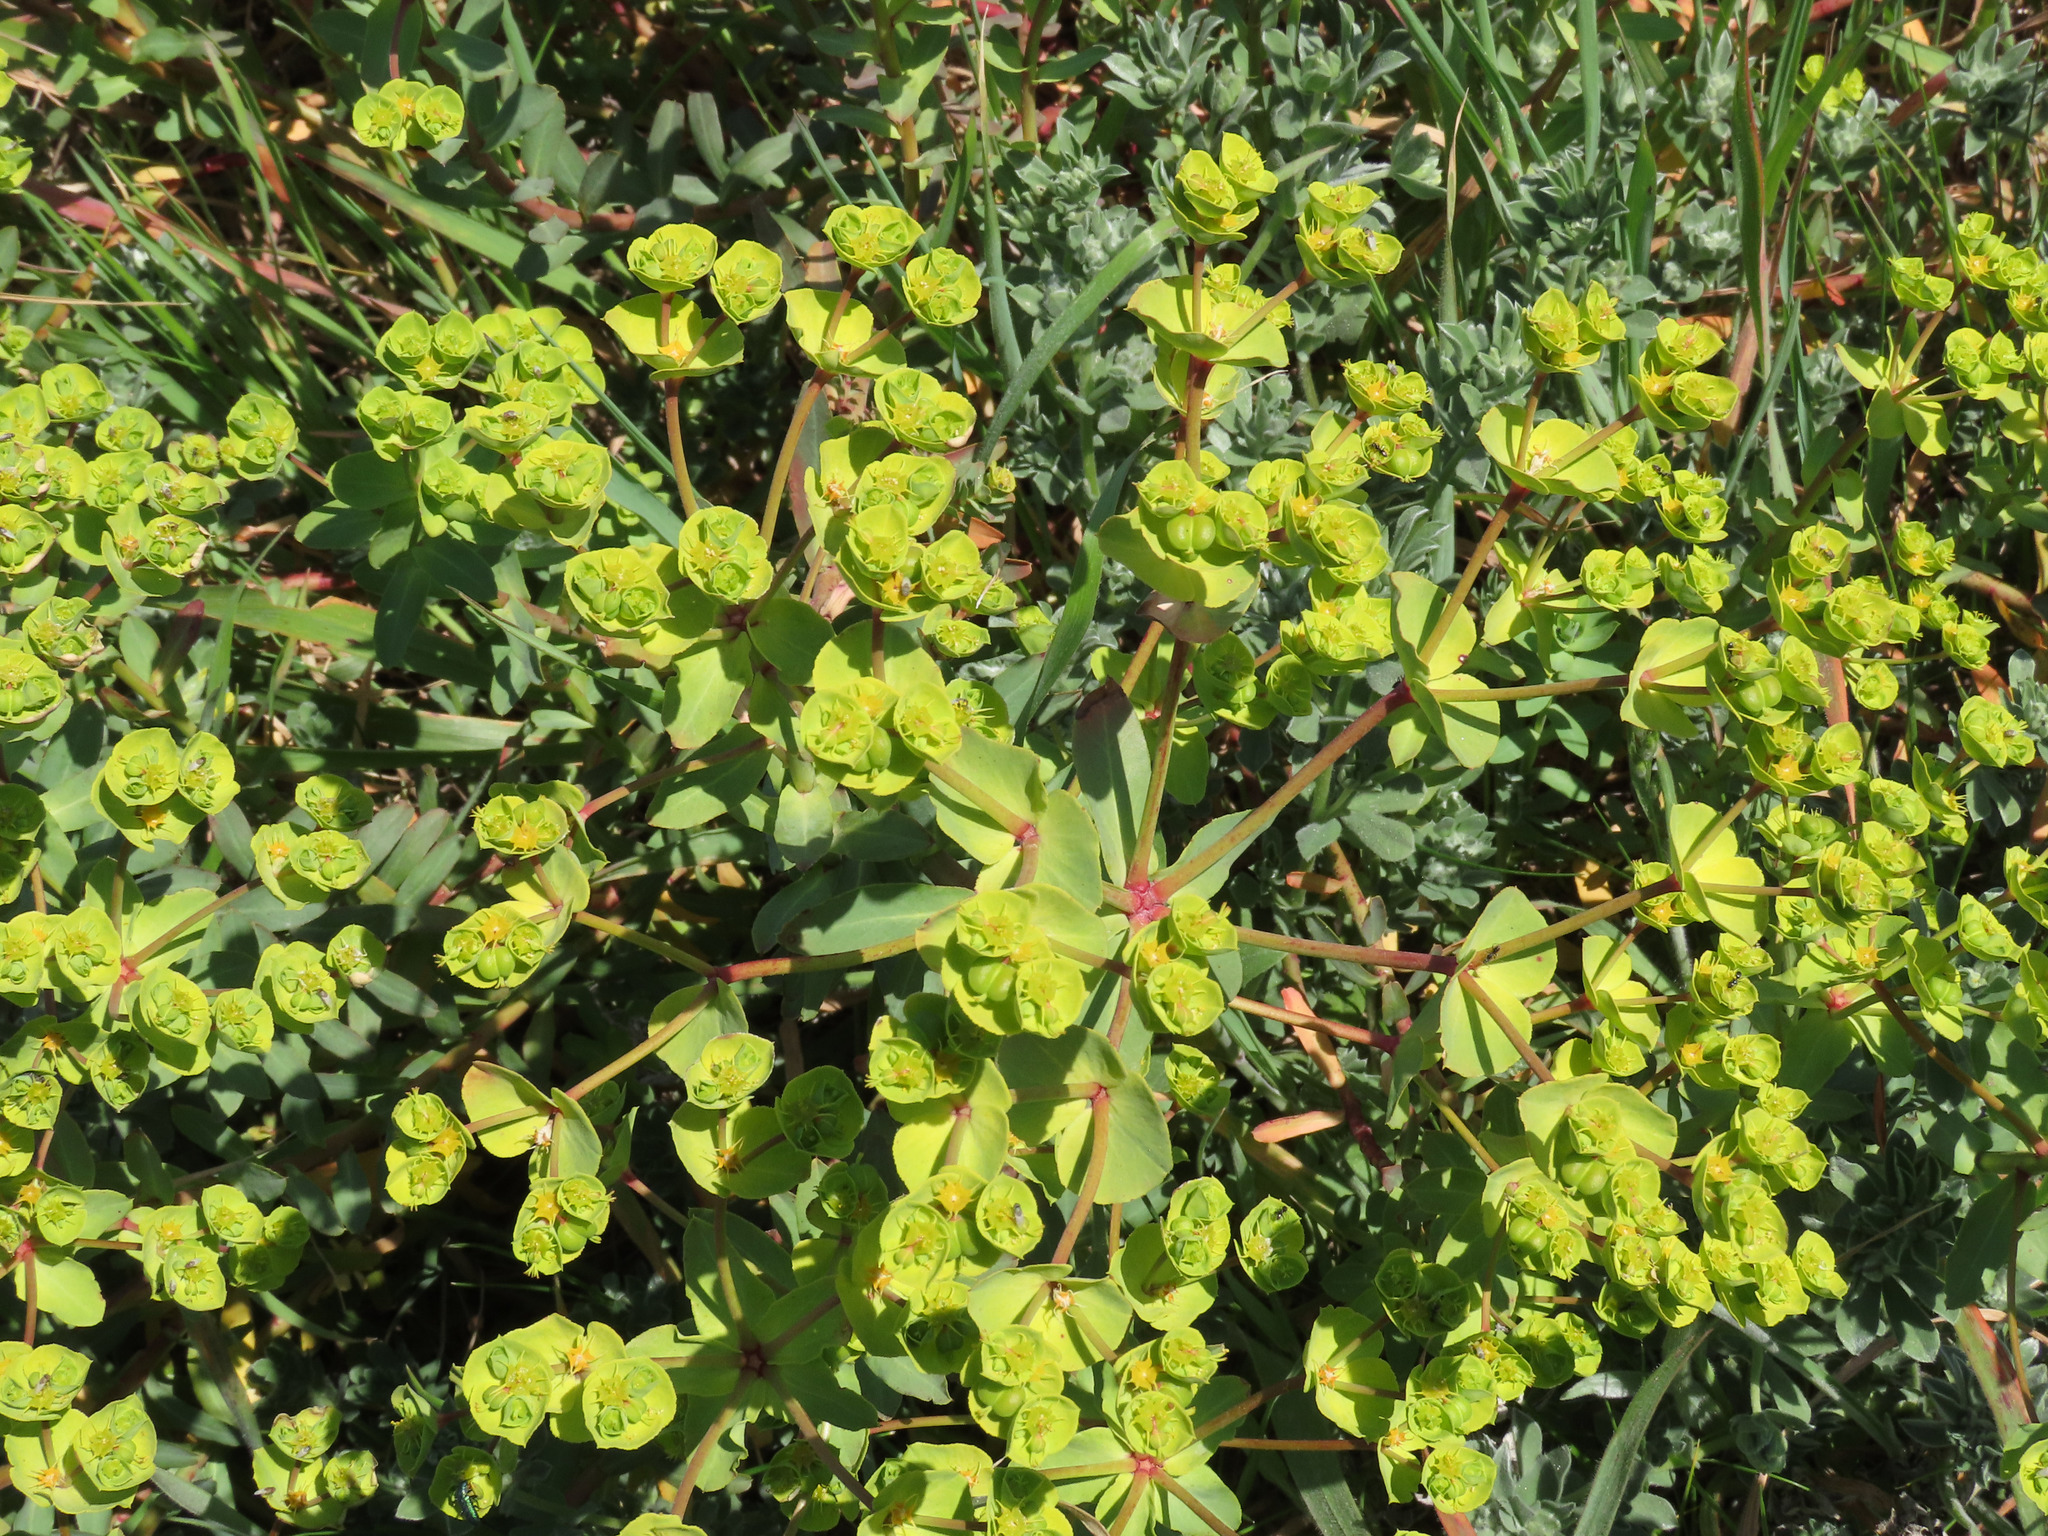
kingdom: Plantae
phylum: Tracheophyta
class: Magnoliopsida
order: Malpighiales
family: Euphorbiaceae
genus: Euphorbia
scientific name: Euphorbia terracina
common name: Geraldton carnation weed
